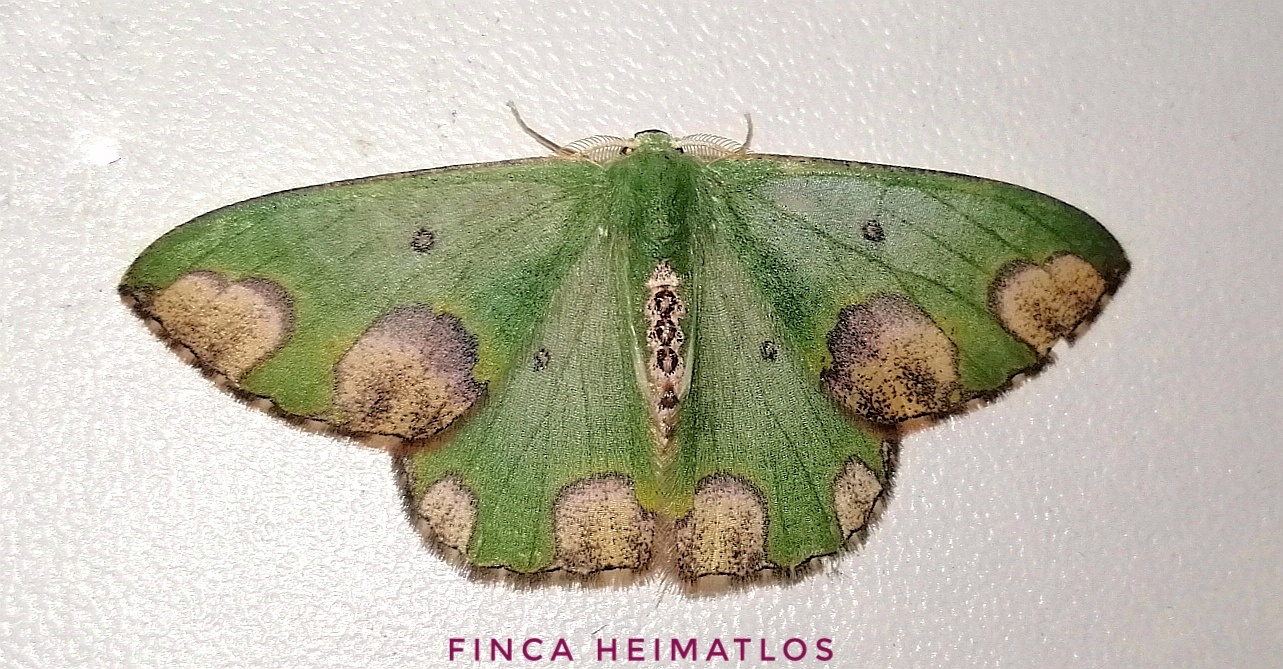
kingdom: Animalia
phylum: Arthropoda
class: Insecta
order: Lepidoptera
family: Geometridae
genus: Oospila
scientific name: Oospila carnelunata
